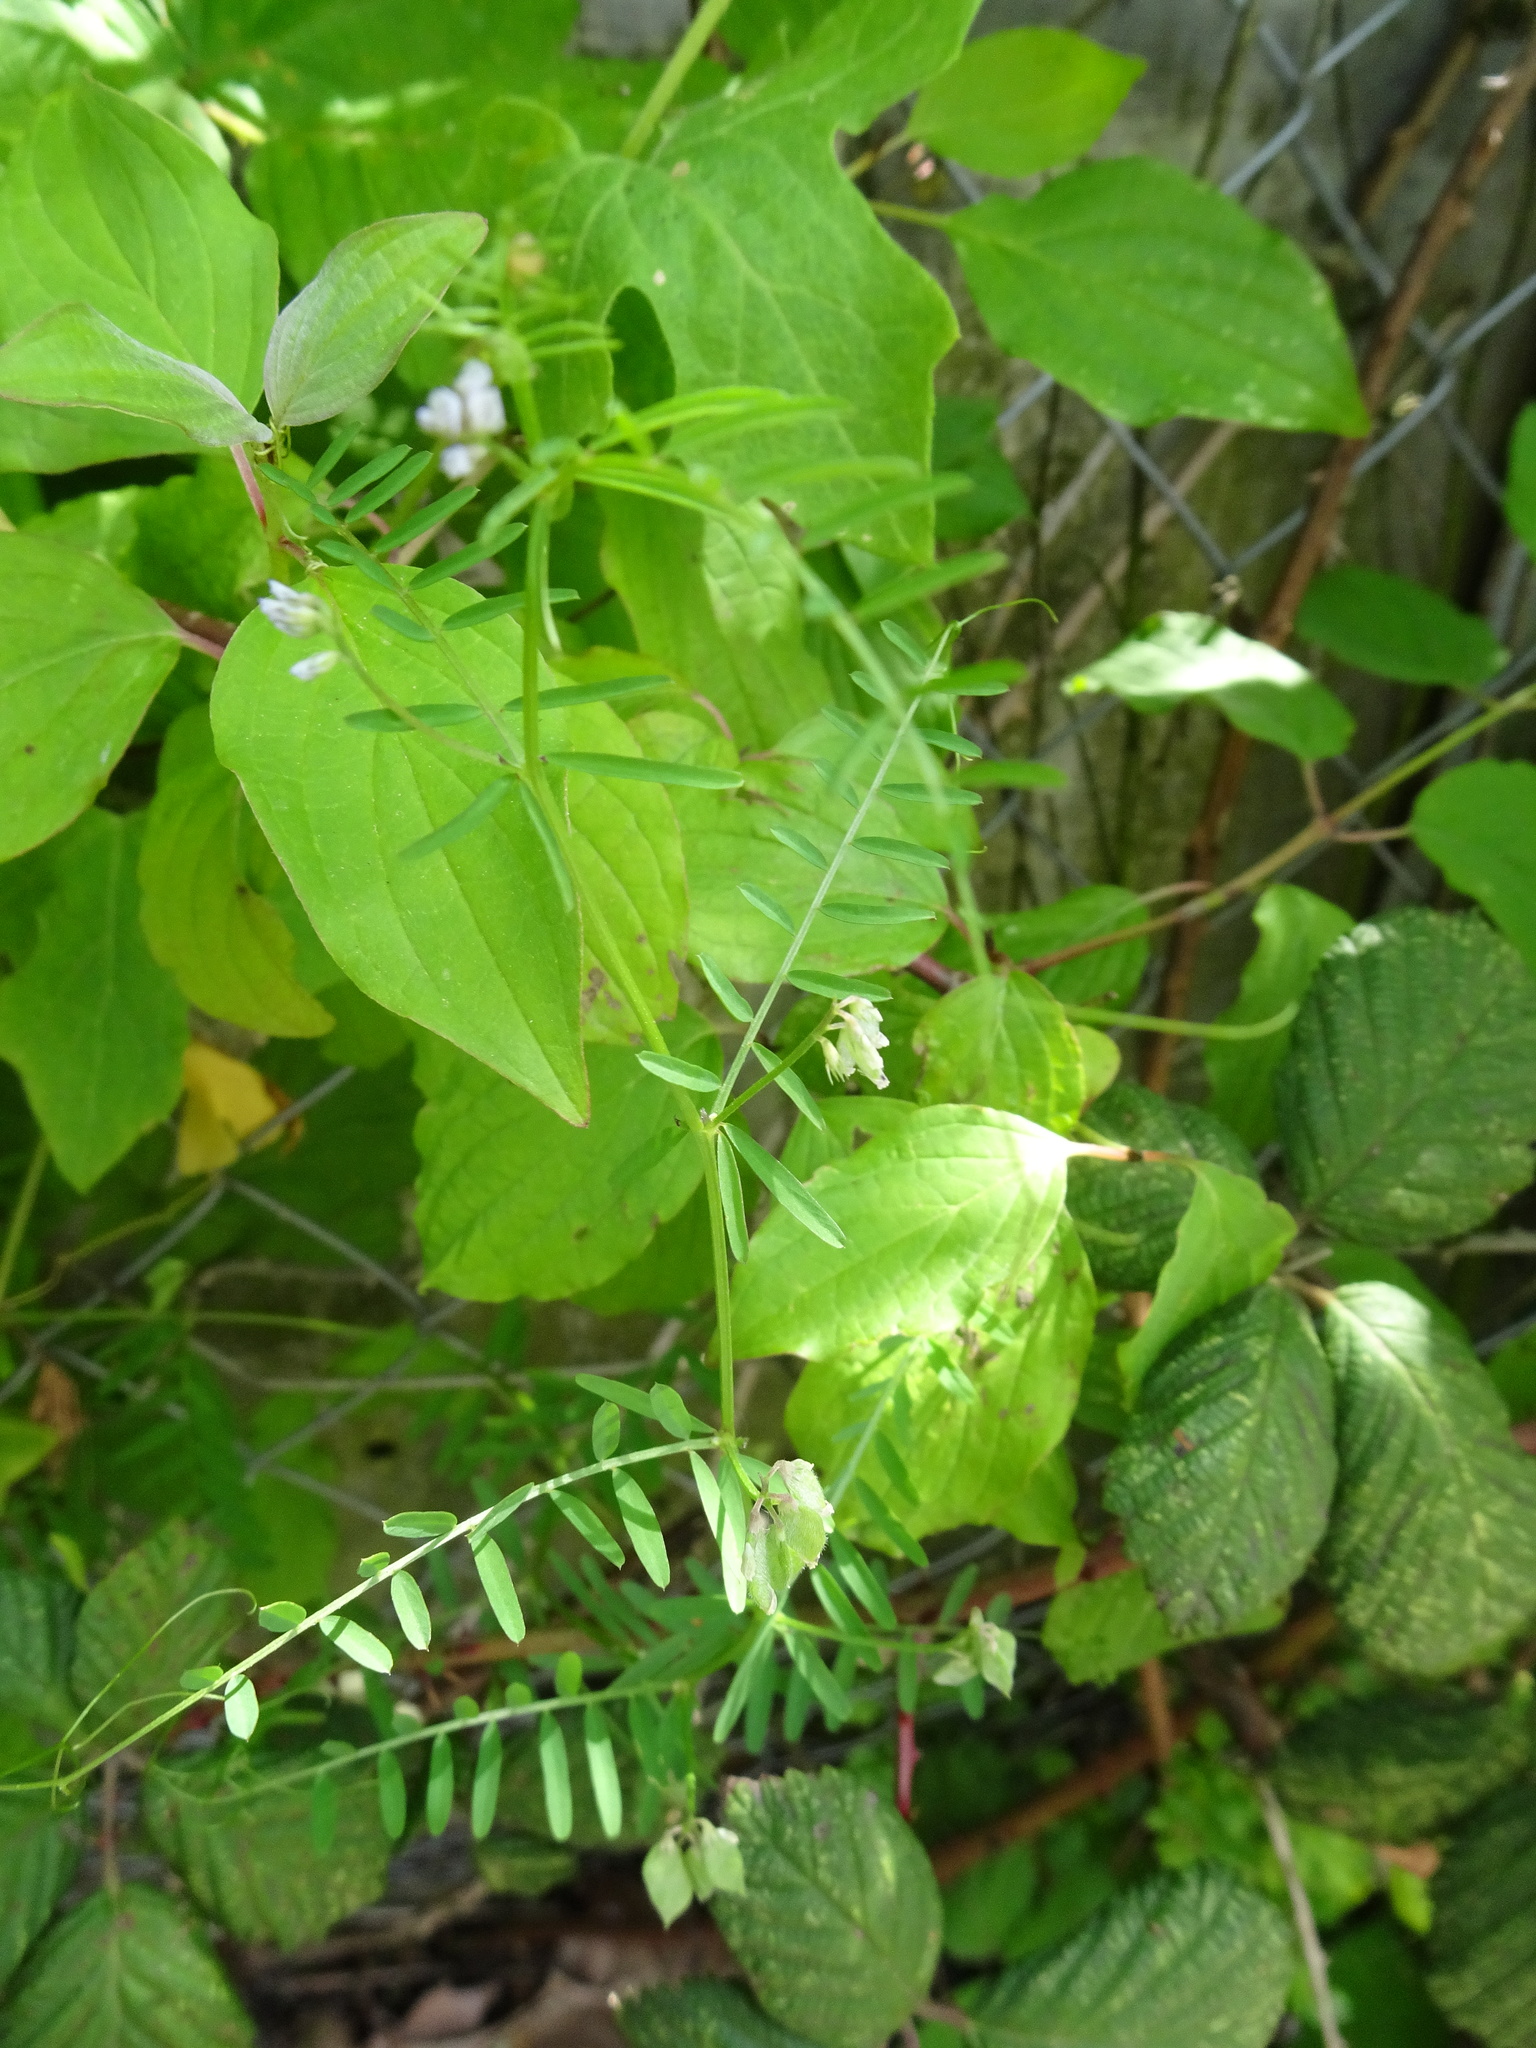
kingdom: Plantae
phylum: Tracheophyta
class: Magnoliopsida
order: Fabales
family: Fabaceae
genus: Vicia
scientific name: Vicia hirsuta
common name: Tiny vetch
